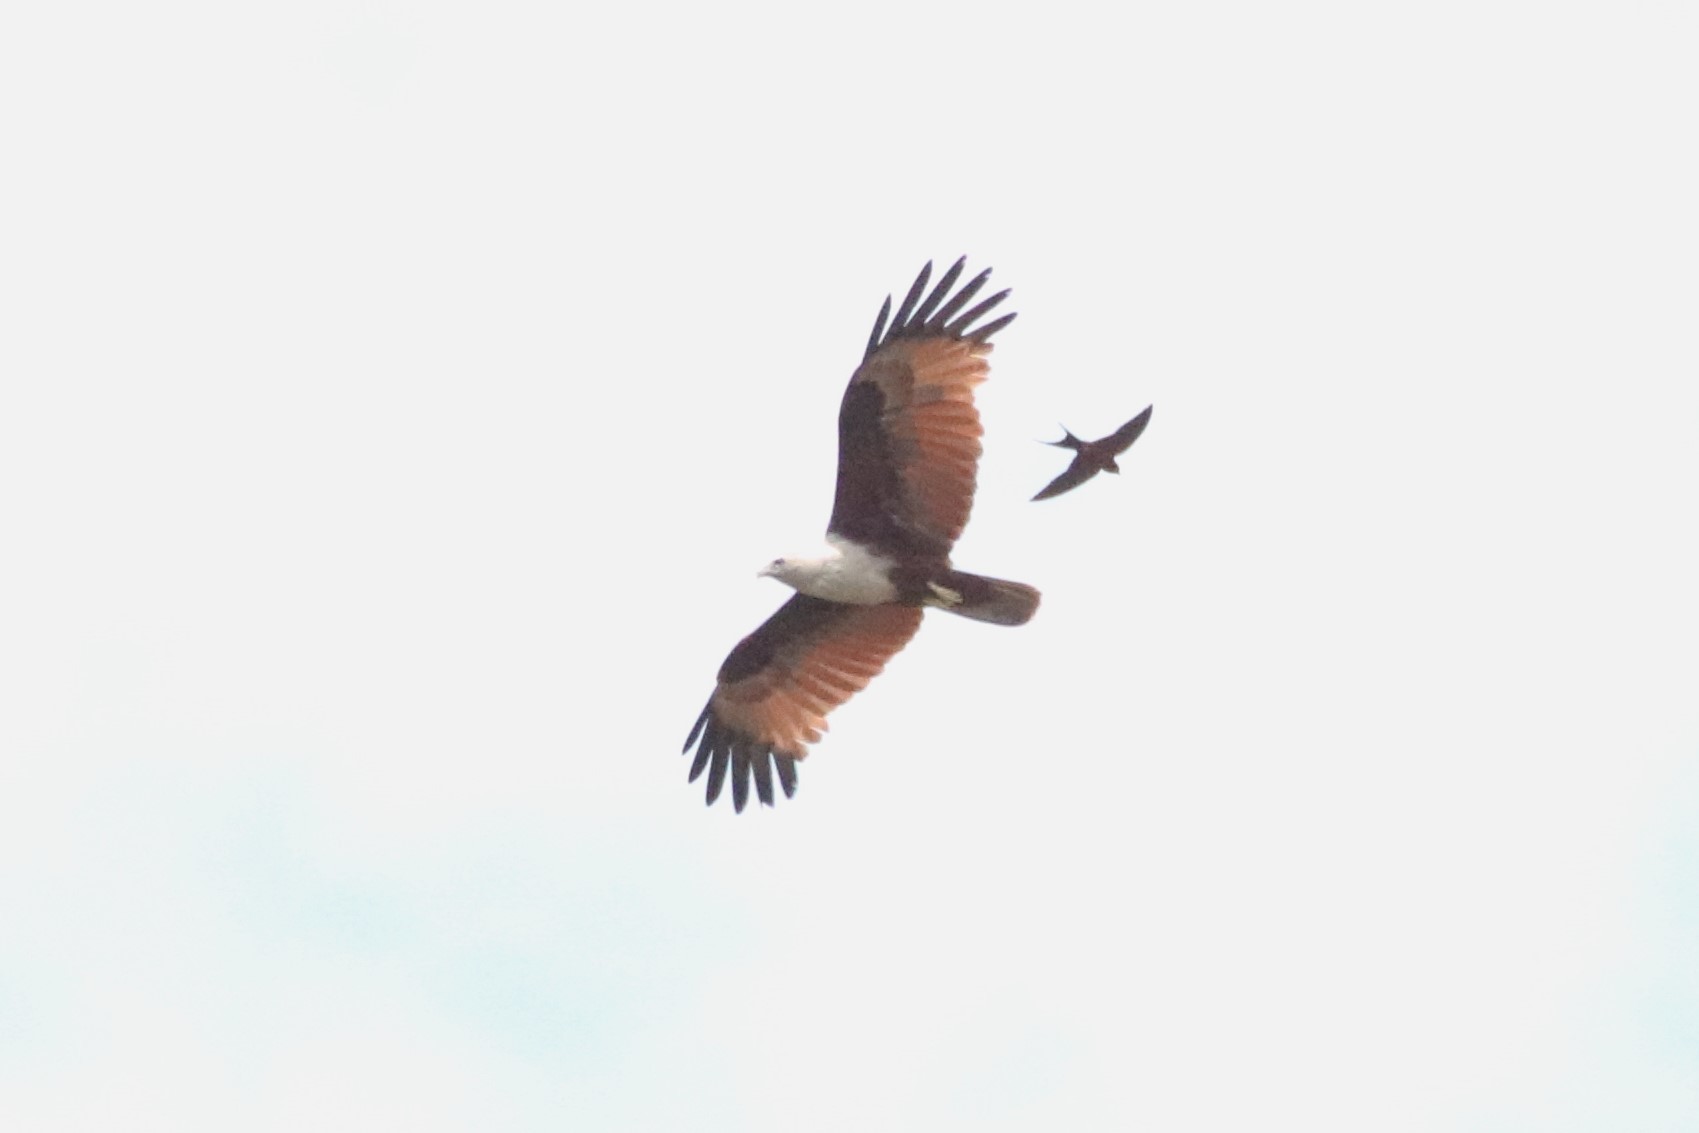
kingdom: Animalia
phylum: Chordata
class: Aves
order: Accipitriformes
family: Accipitridae
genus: Haliastur
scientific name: Haliastur indus
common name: Brahminy kite
